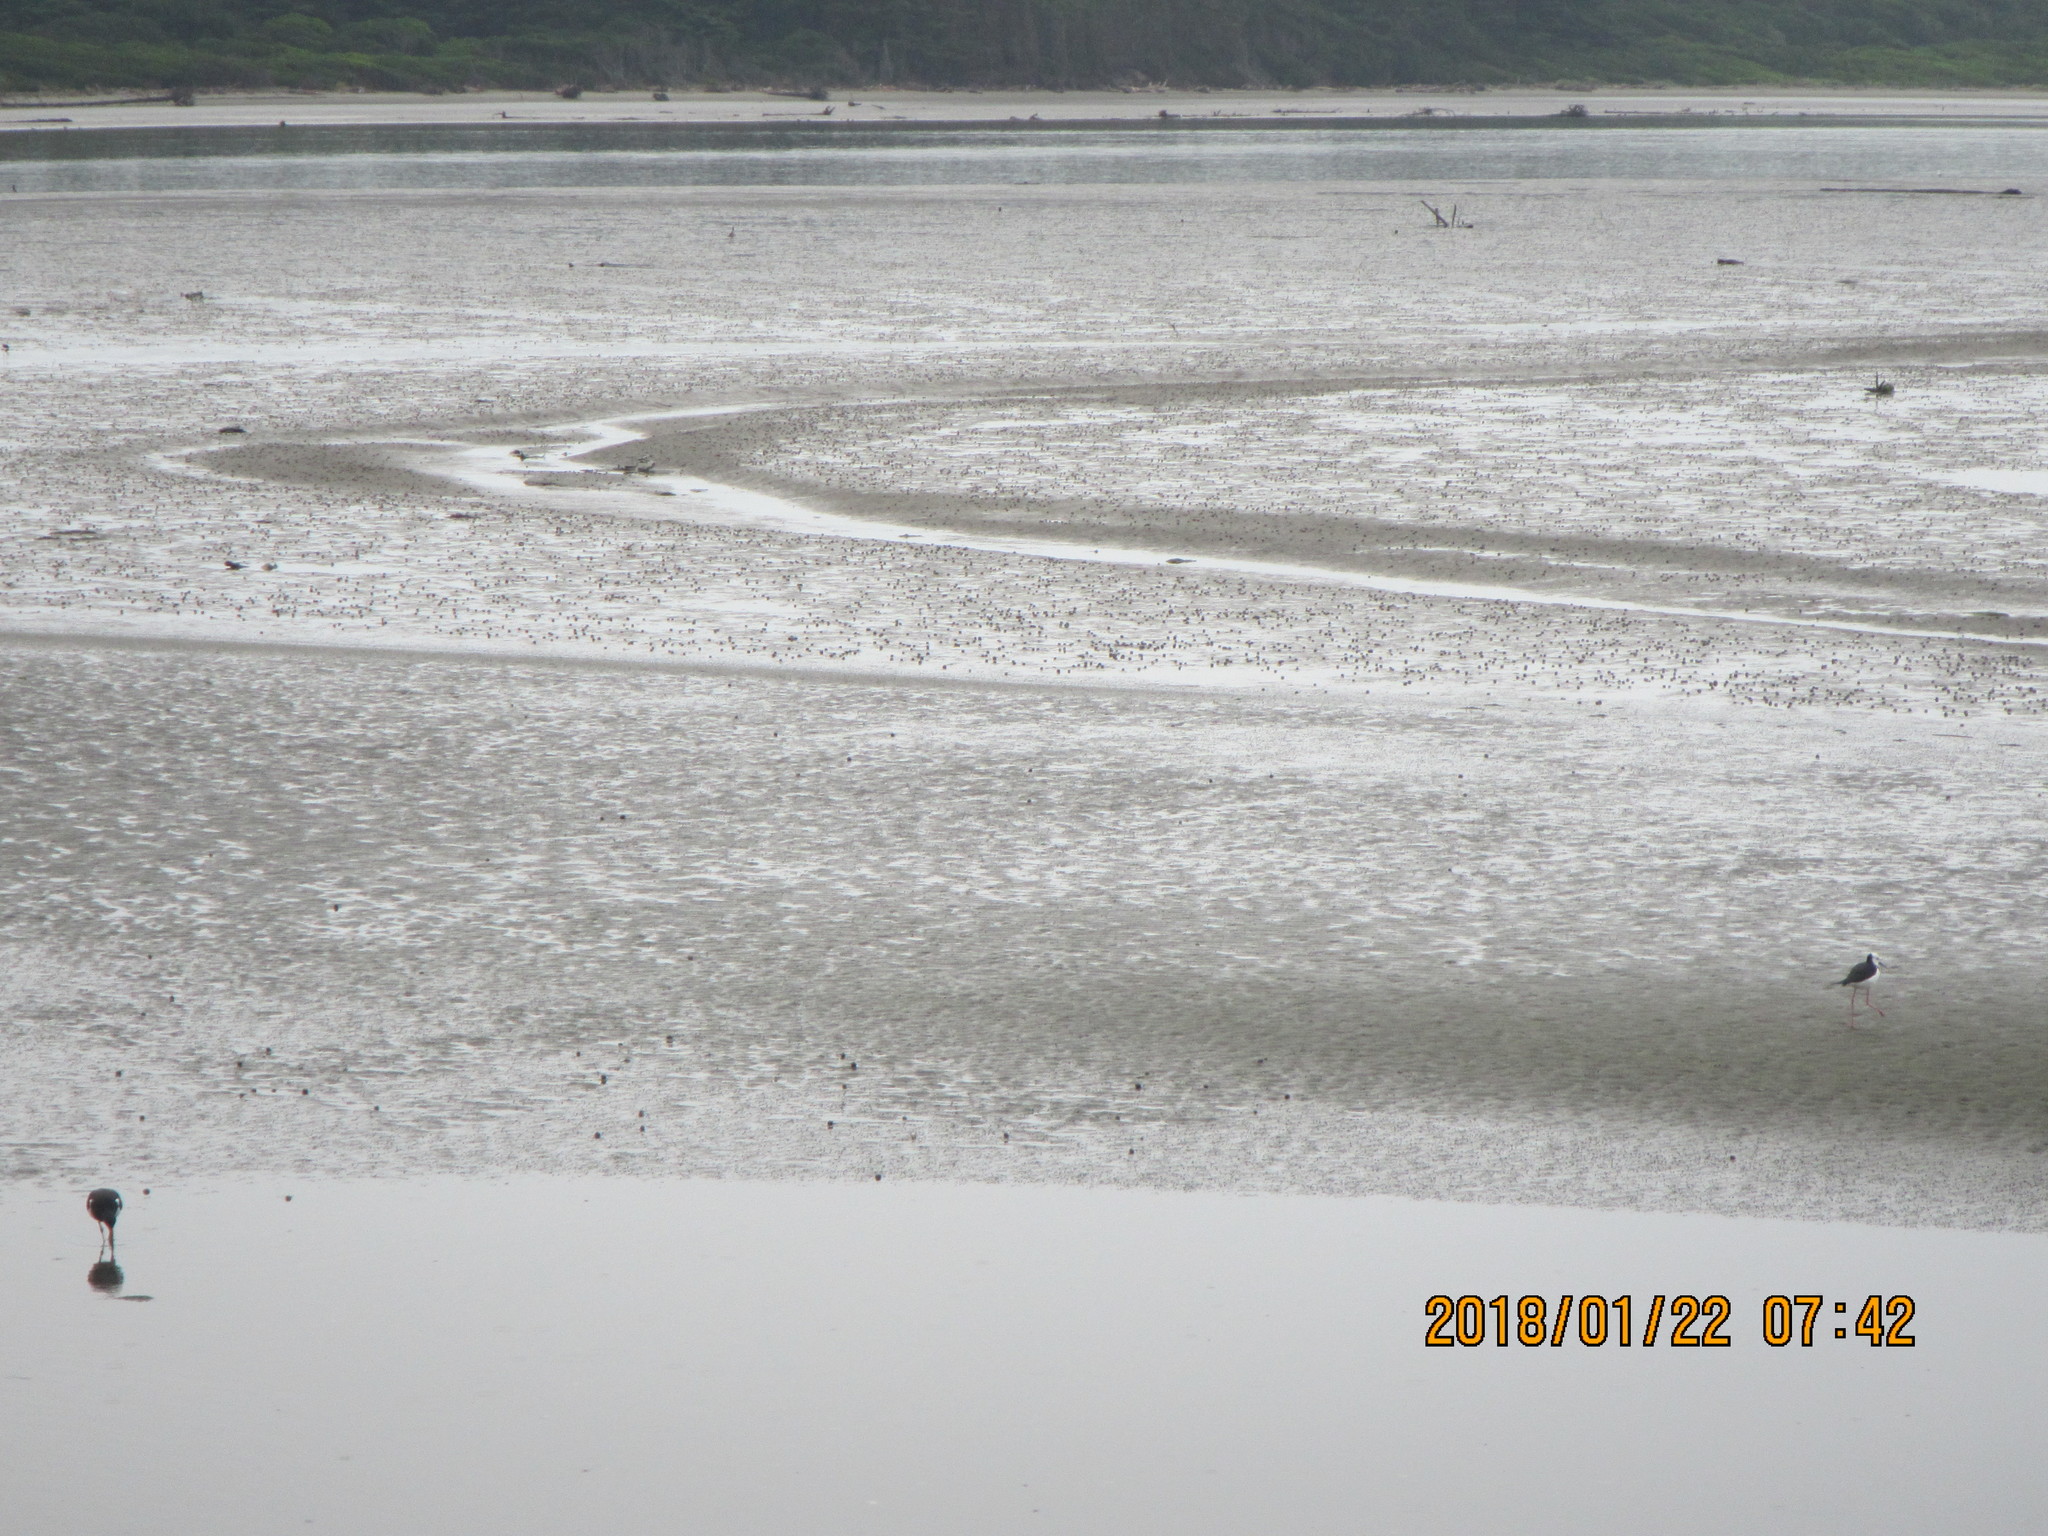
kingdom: Animalia
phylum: Chordata
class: Aves
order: Charadriiformes
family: Recurvirostridae
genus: Himantopus
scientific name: Himantopus leucocephalus
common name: White-headed stilt
